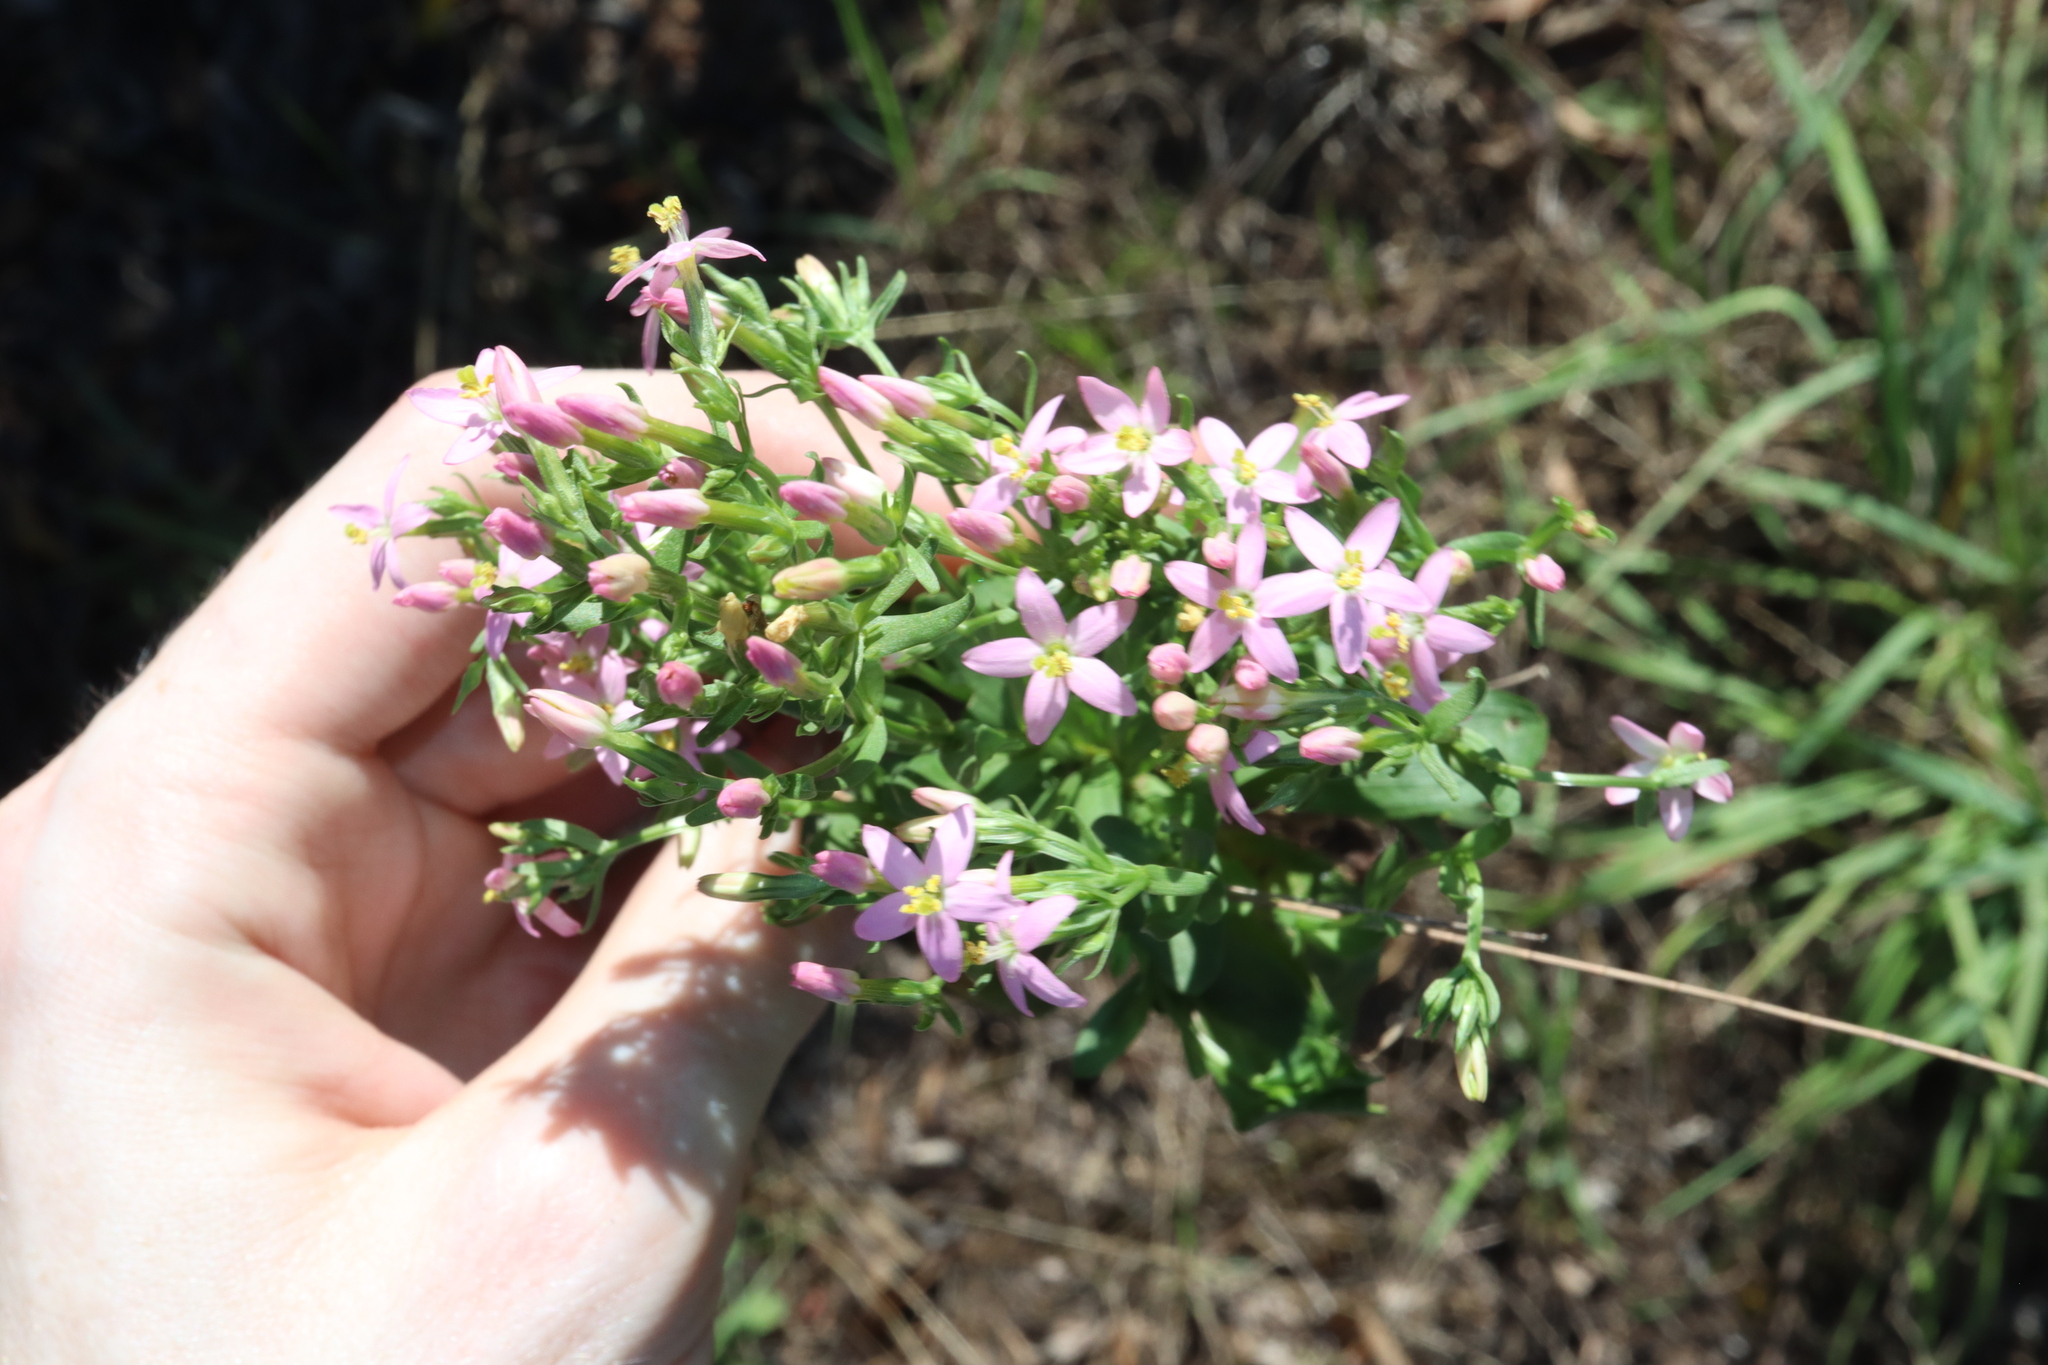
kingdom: Plantae
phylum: Tracheophyta
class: Magnoliopsida
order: Gentianales
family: Gentianaceae
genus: Centaurium
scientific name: Centaurium erythraea
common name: Common centaury
